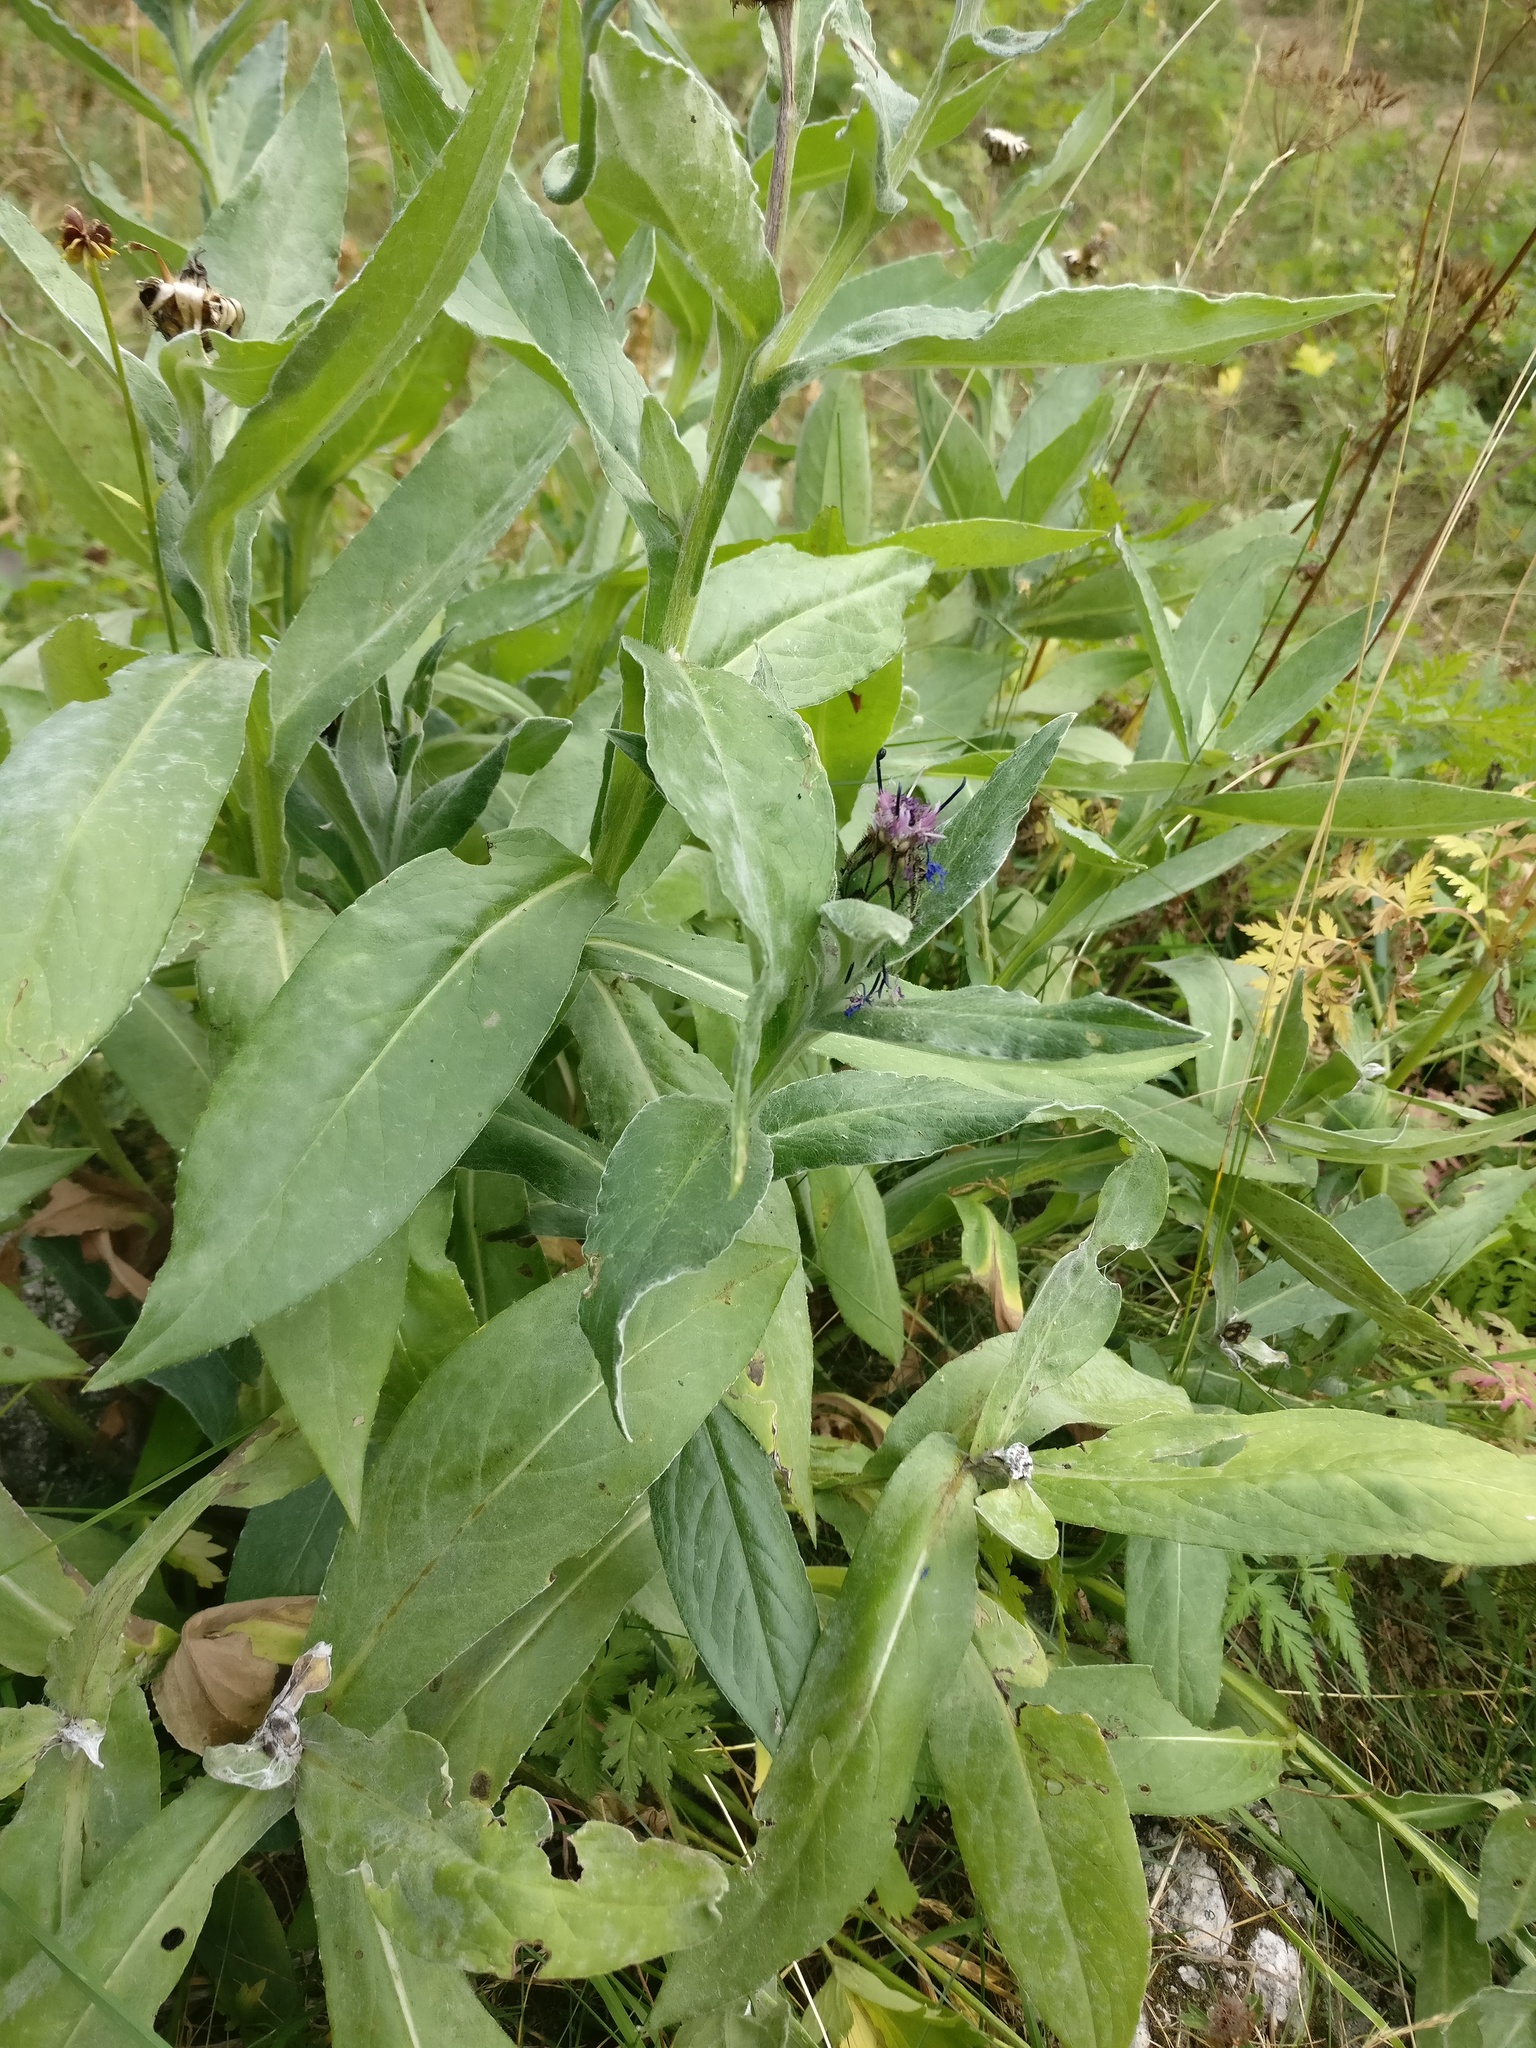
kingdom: Plantae
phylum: Tracheophyta
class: Magnoliopsida
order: Asterales
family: Asteraceae
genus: Centaurea
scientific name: Centaurea montana
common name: Perennial cornflower
